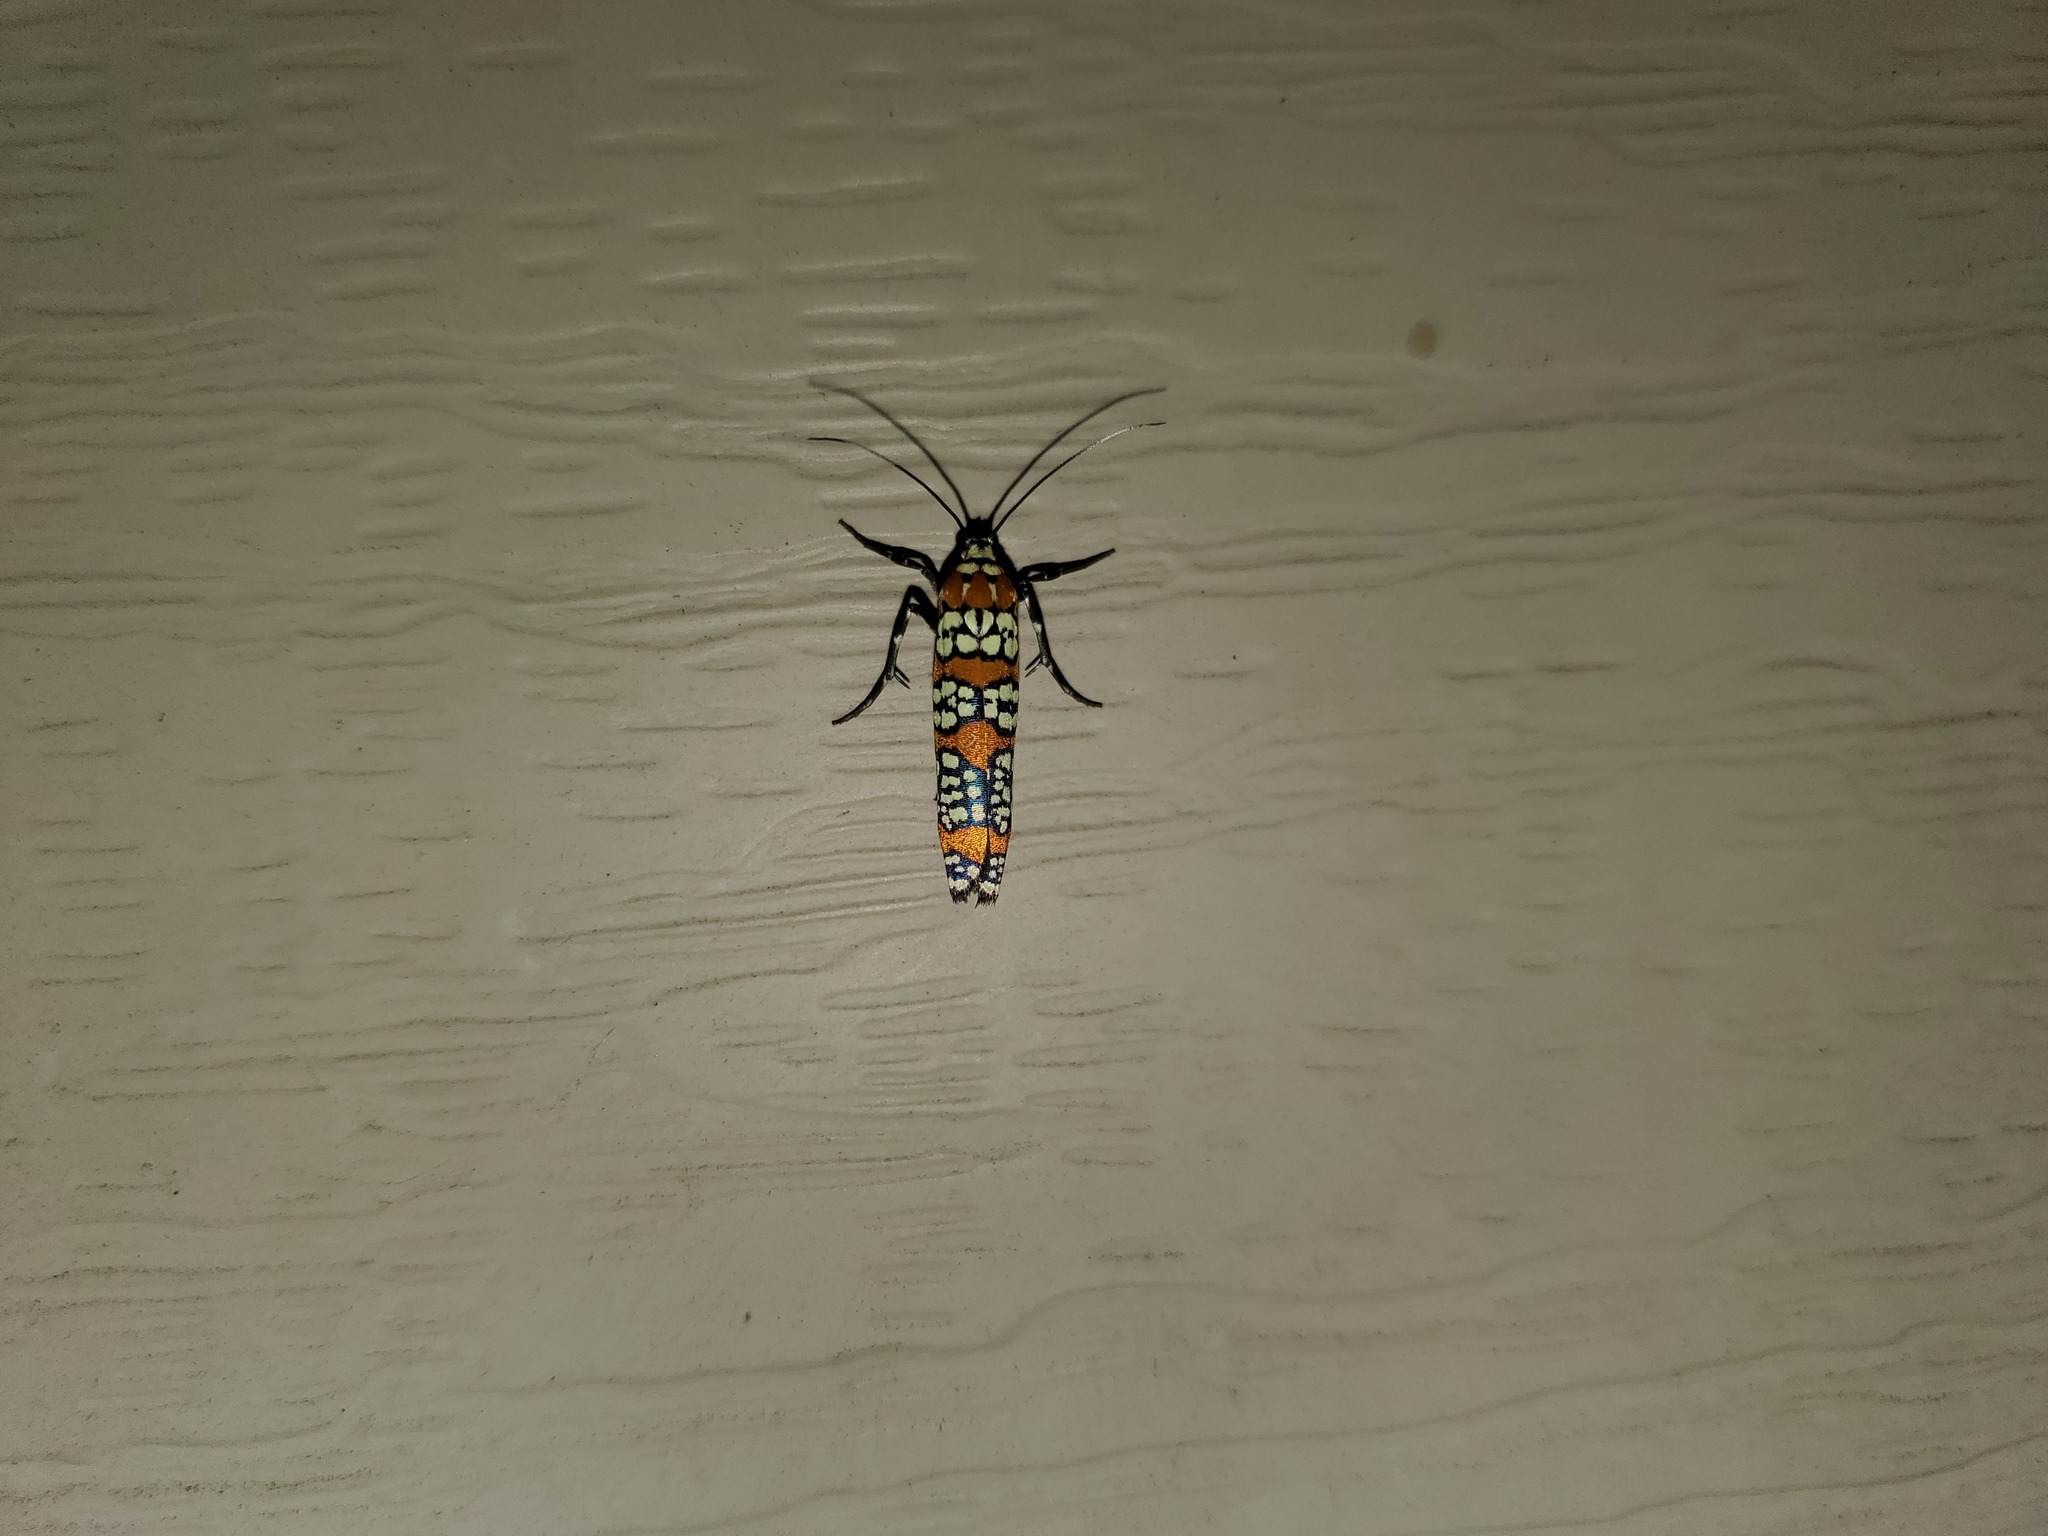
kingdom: Animalia
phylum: Arthropoda
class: Insecta
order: Lepidoptera
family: Attevidae
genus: Atteva
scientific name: Atteva punctella
